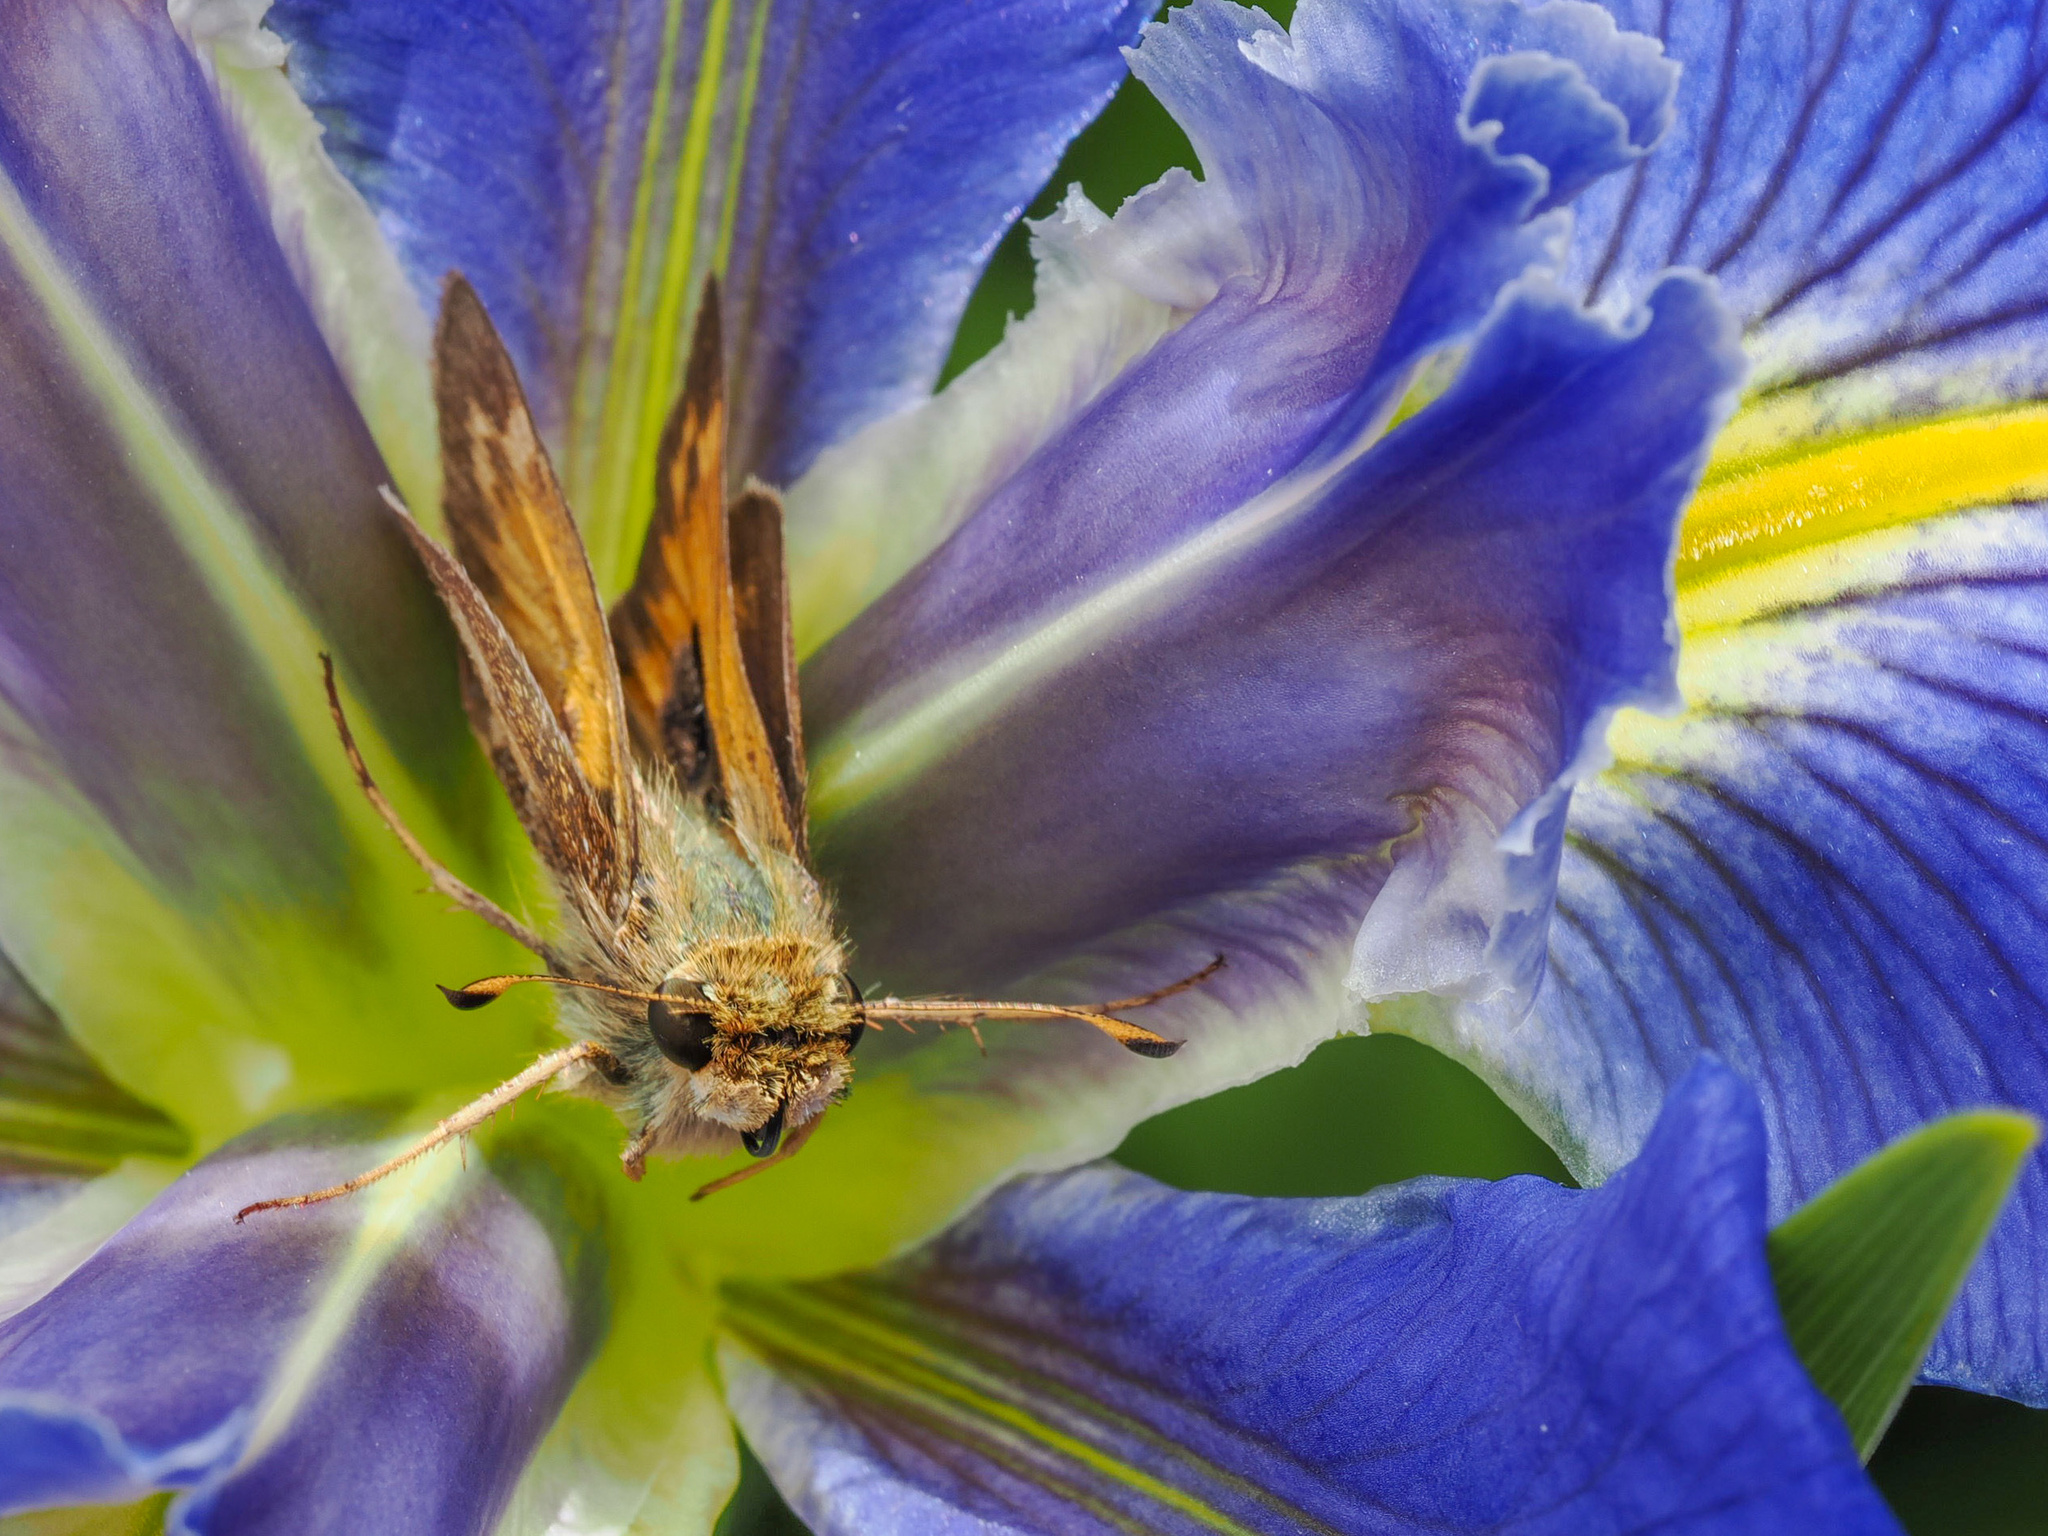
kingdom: Animalia
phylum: Arthropoda
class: Insecta
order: Lepidoptera
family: Hesperiidae
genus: Atalopedes
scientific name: Atalopedes
